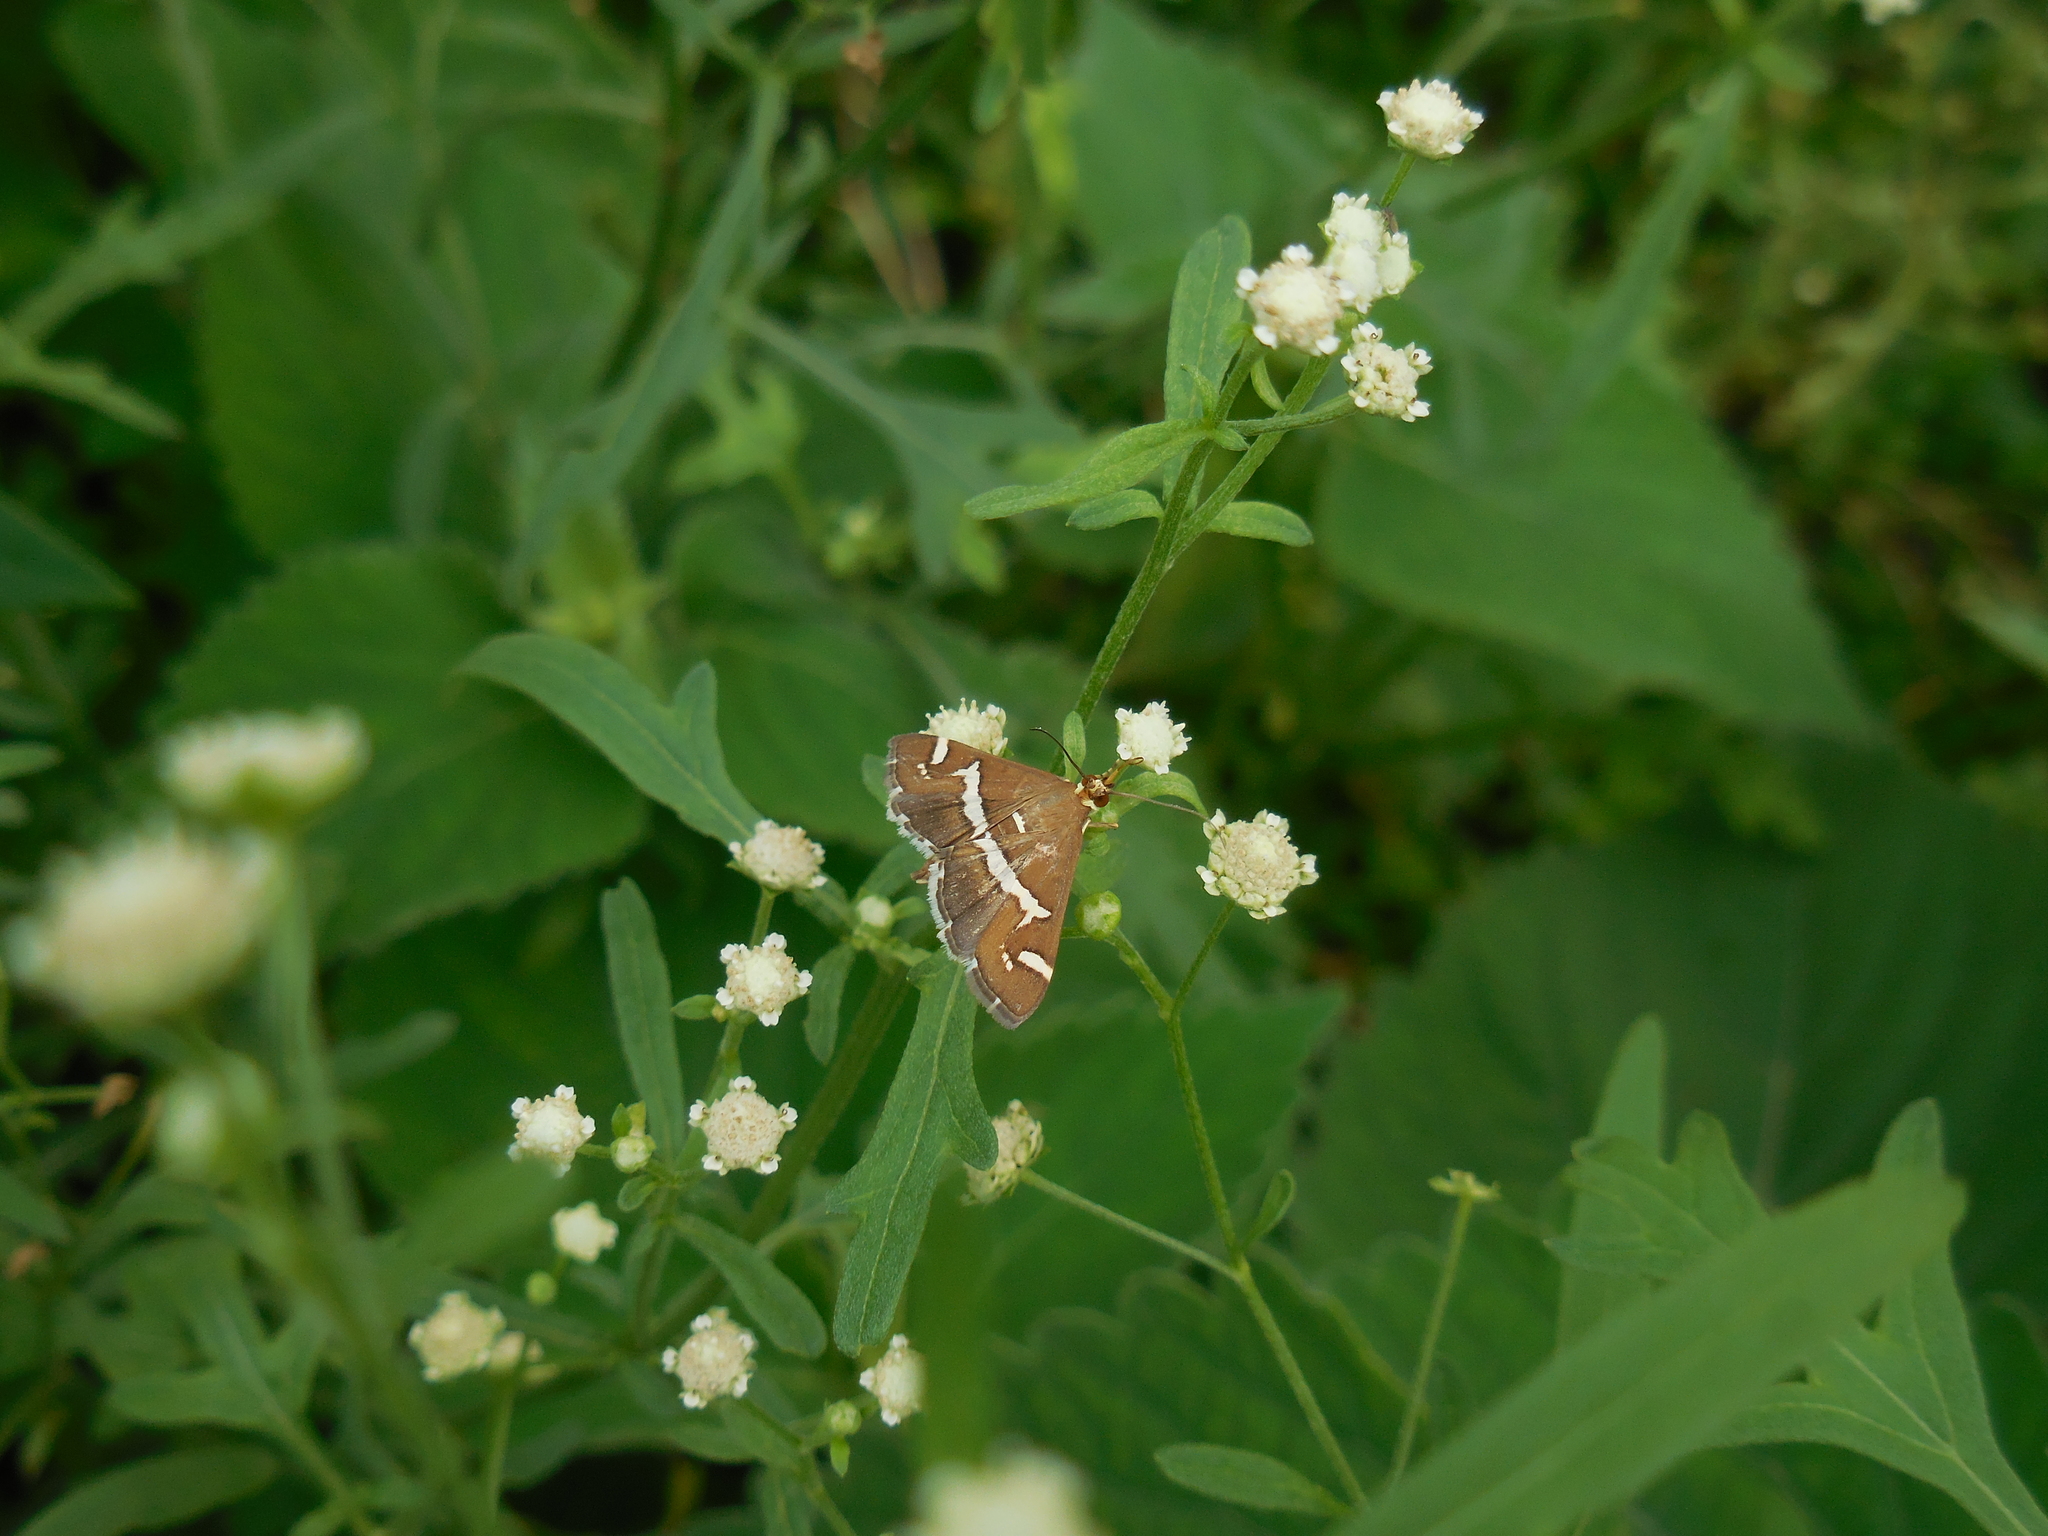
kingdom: Animalia
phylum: Arthropoda
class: Insecta
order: Lepidoptera
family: Crambidae
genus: Spoladea
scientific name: Spoladea recurvalis
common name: Beet webworm moth
